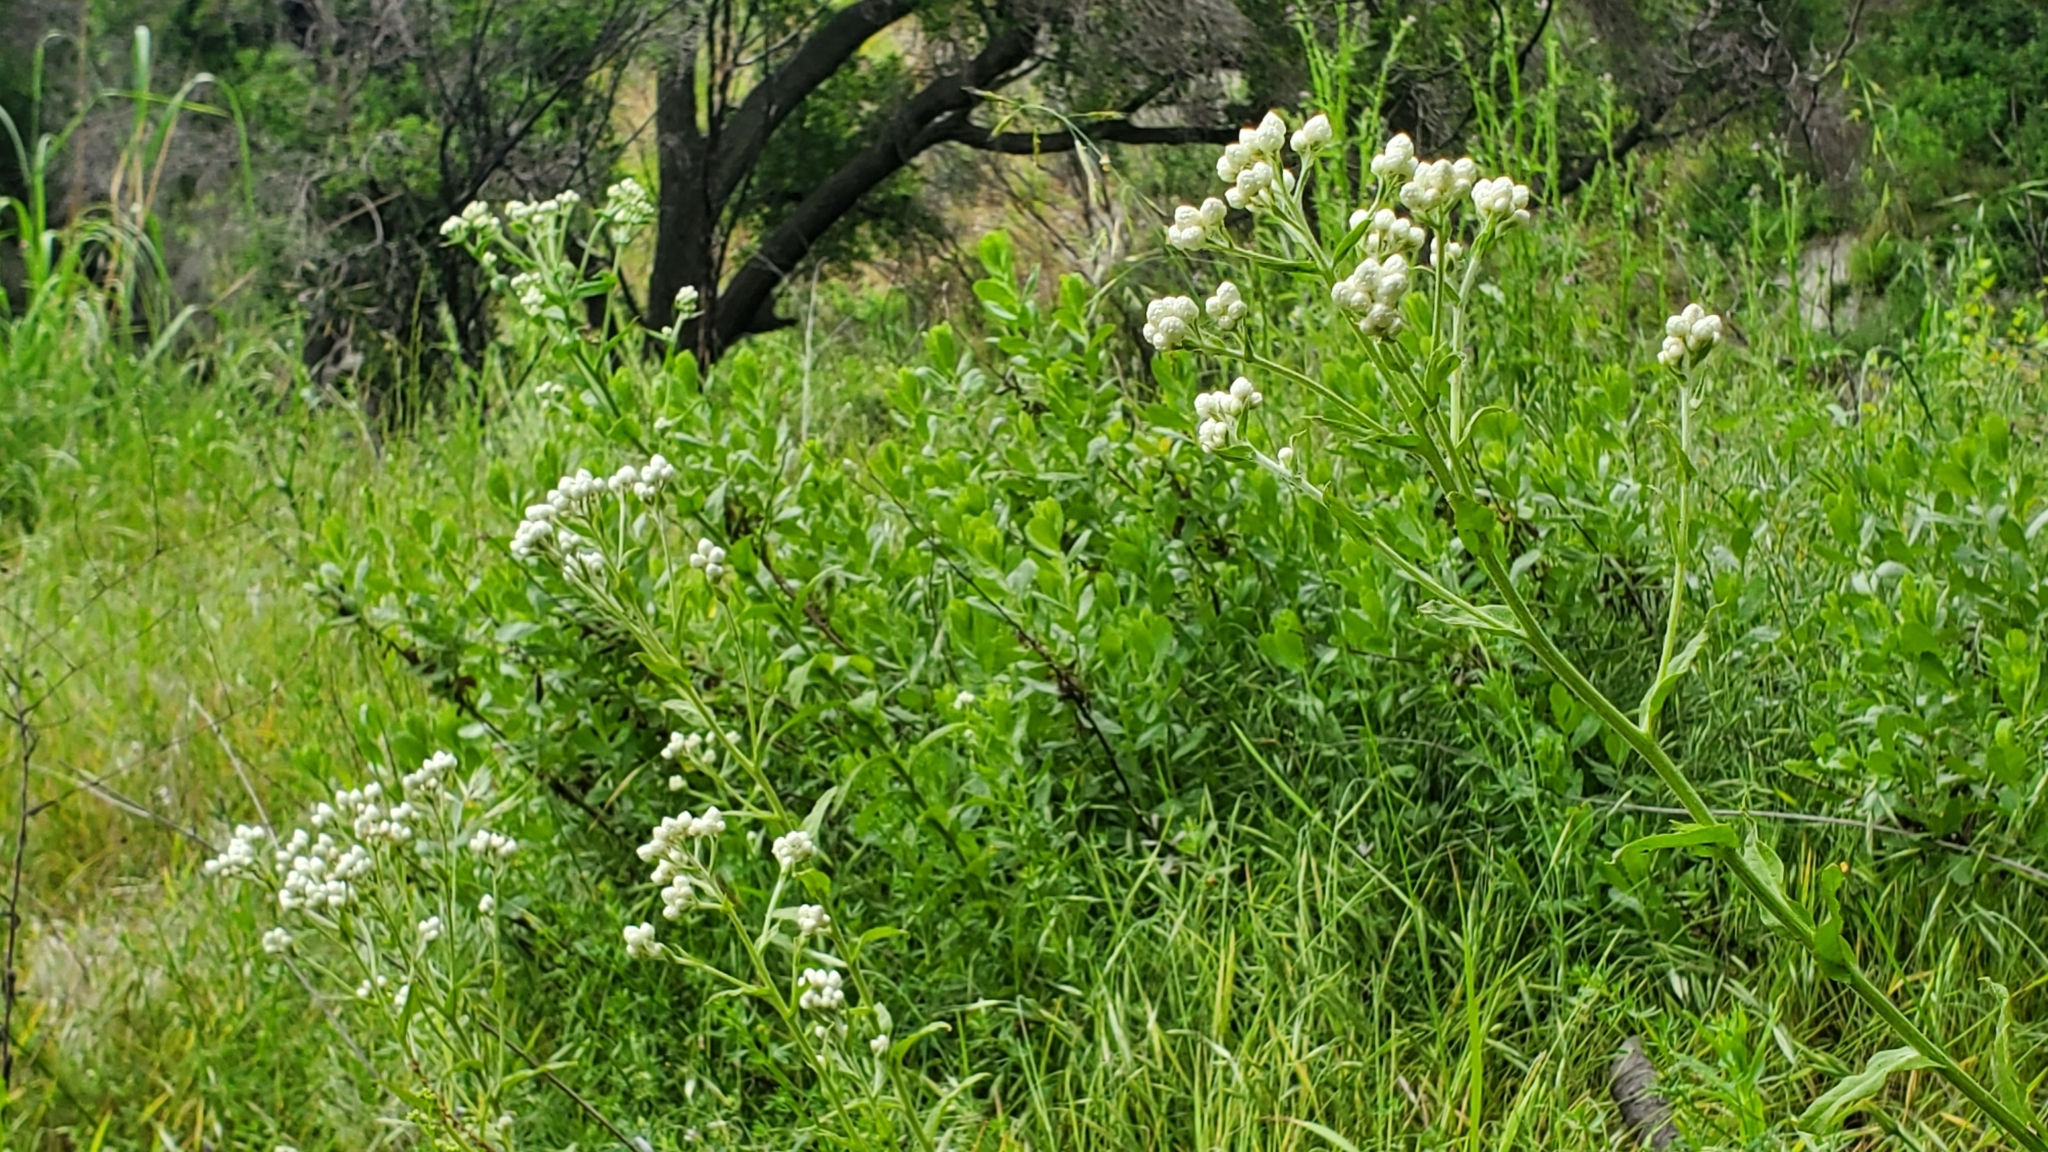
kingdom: Plantae
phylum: Tracheophyta
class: Magnoliopsida
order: Asterales
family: Asteraceae
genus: Pseudognaphalium
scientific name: Pseudognaphalium californicum
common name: California rabbit-tobacco
